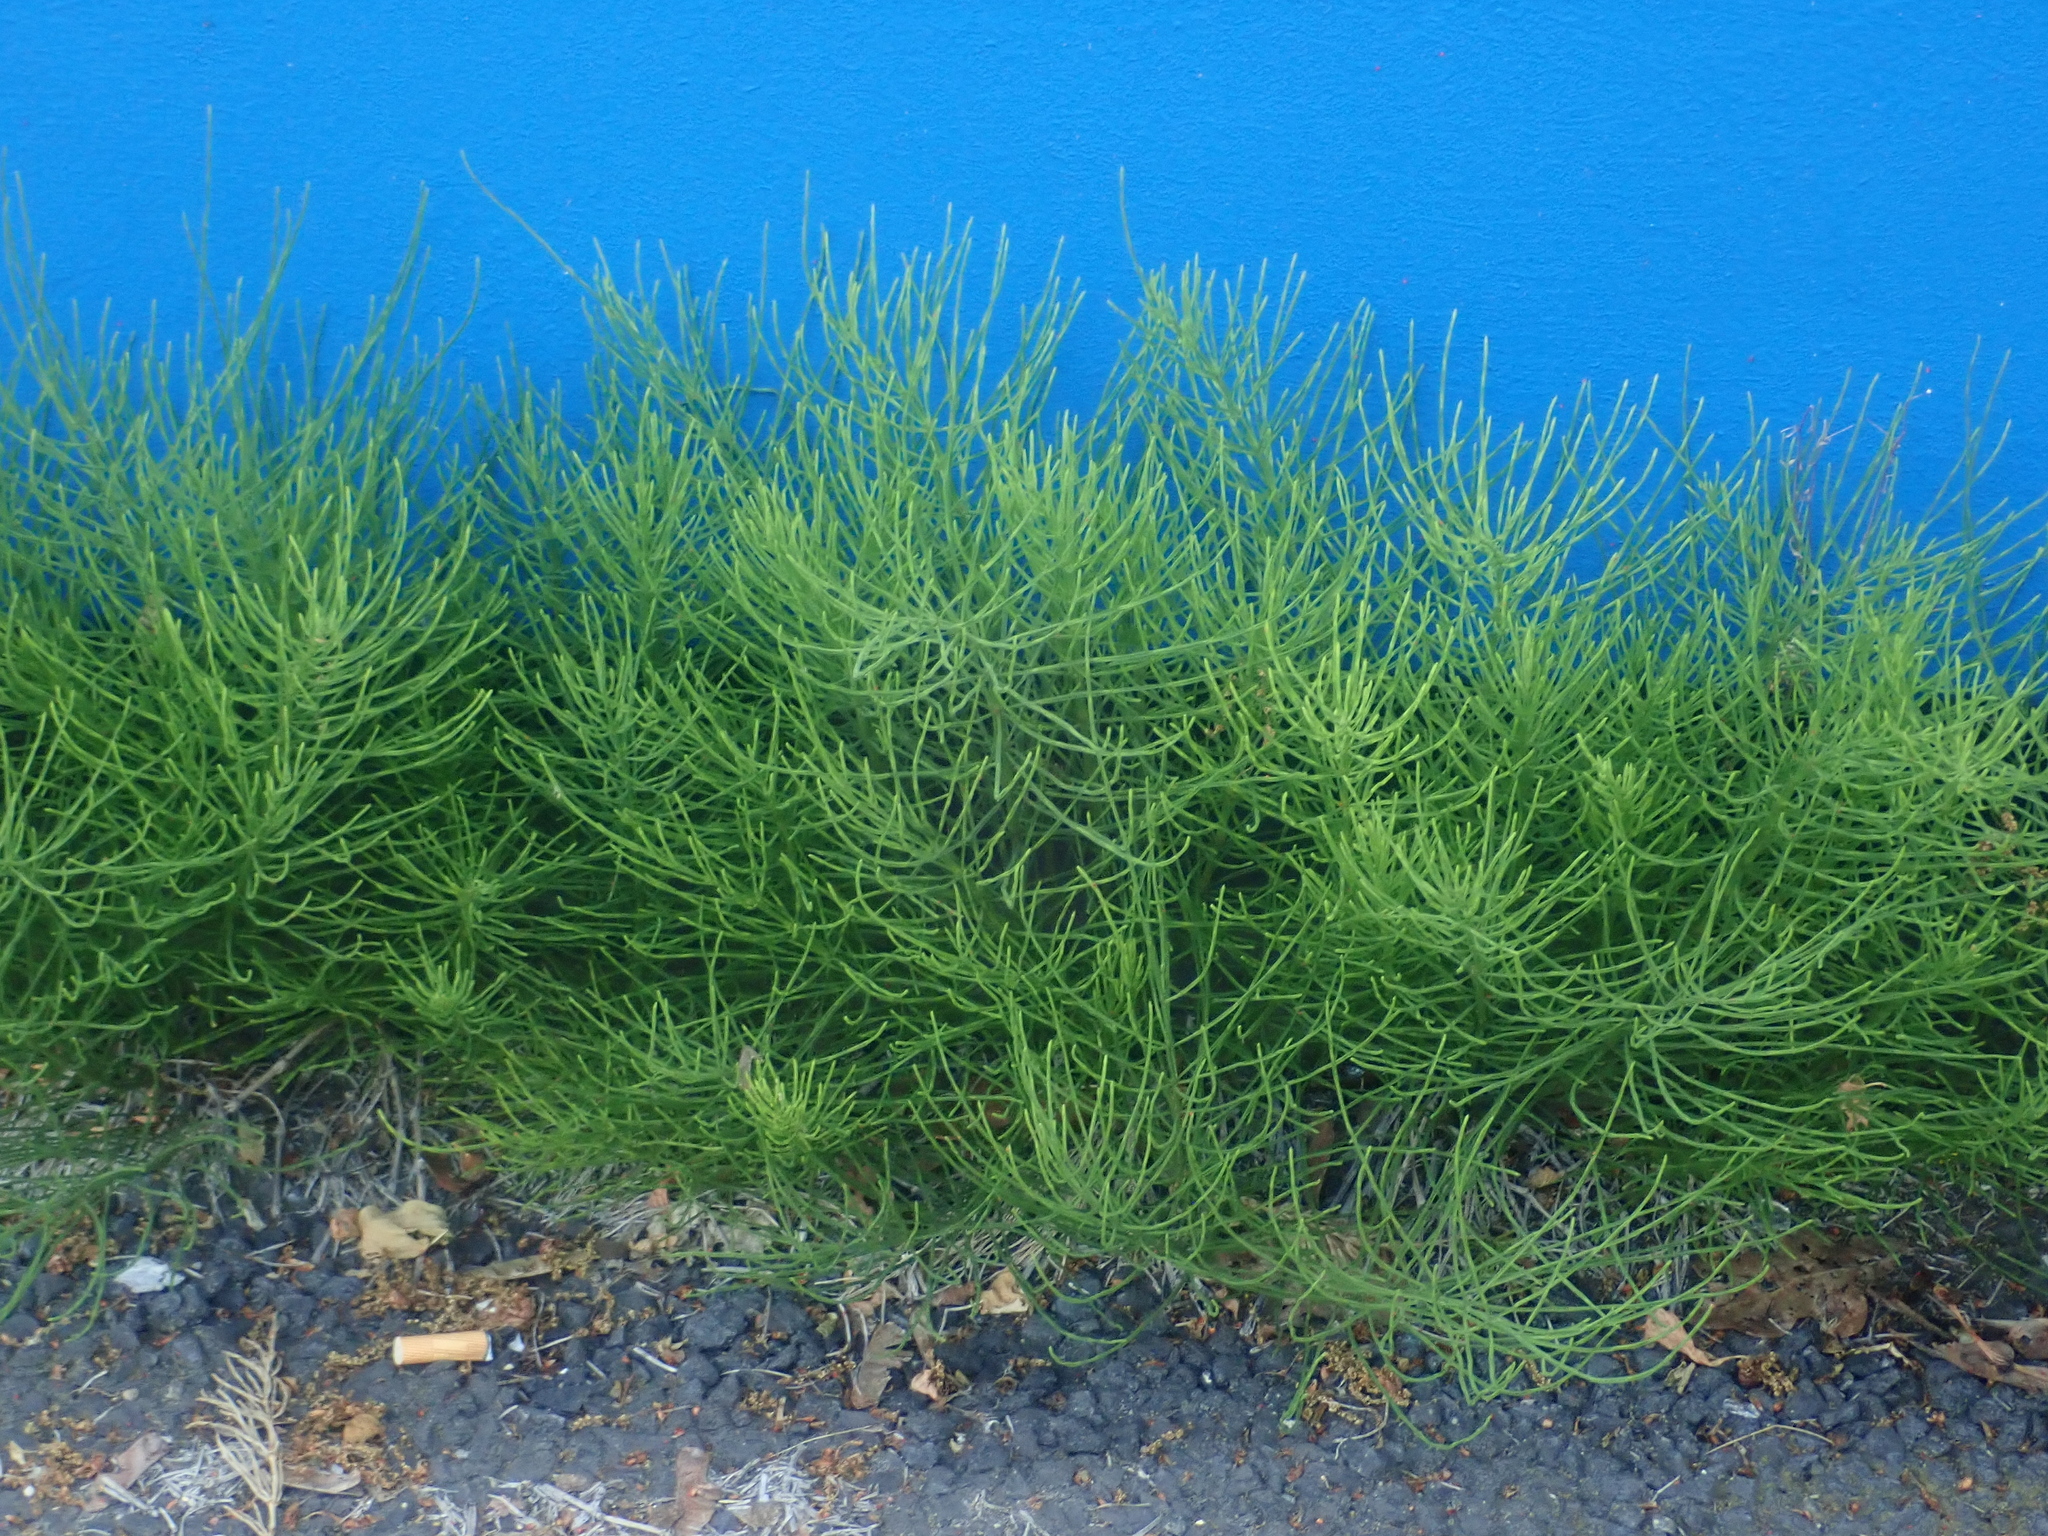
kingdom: Plantae
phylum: Tracheophyta
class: Polypodiopsida
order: Equisetales
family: Equisetaceae
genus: Equisetum
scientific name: Equisetum arvense
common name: Field horsetail
